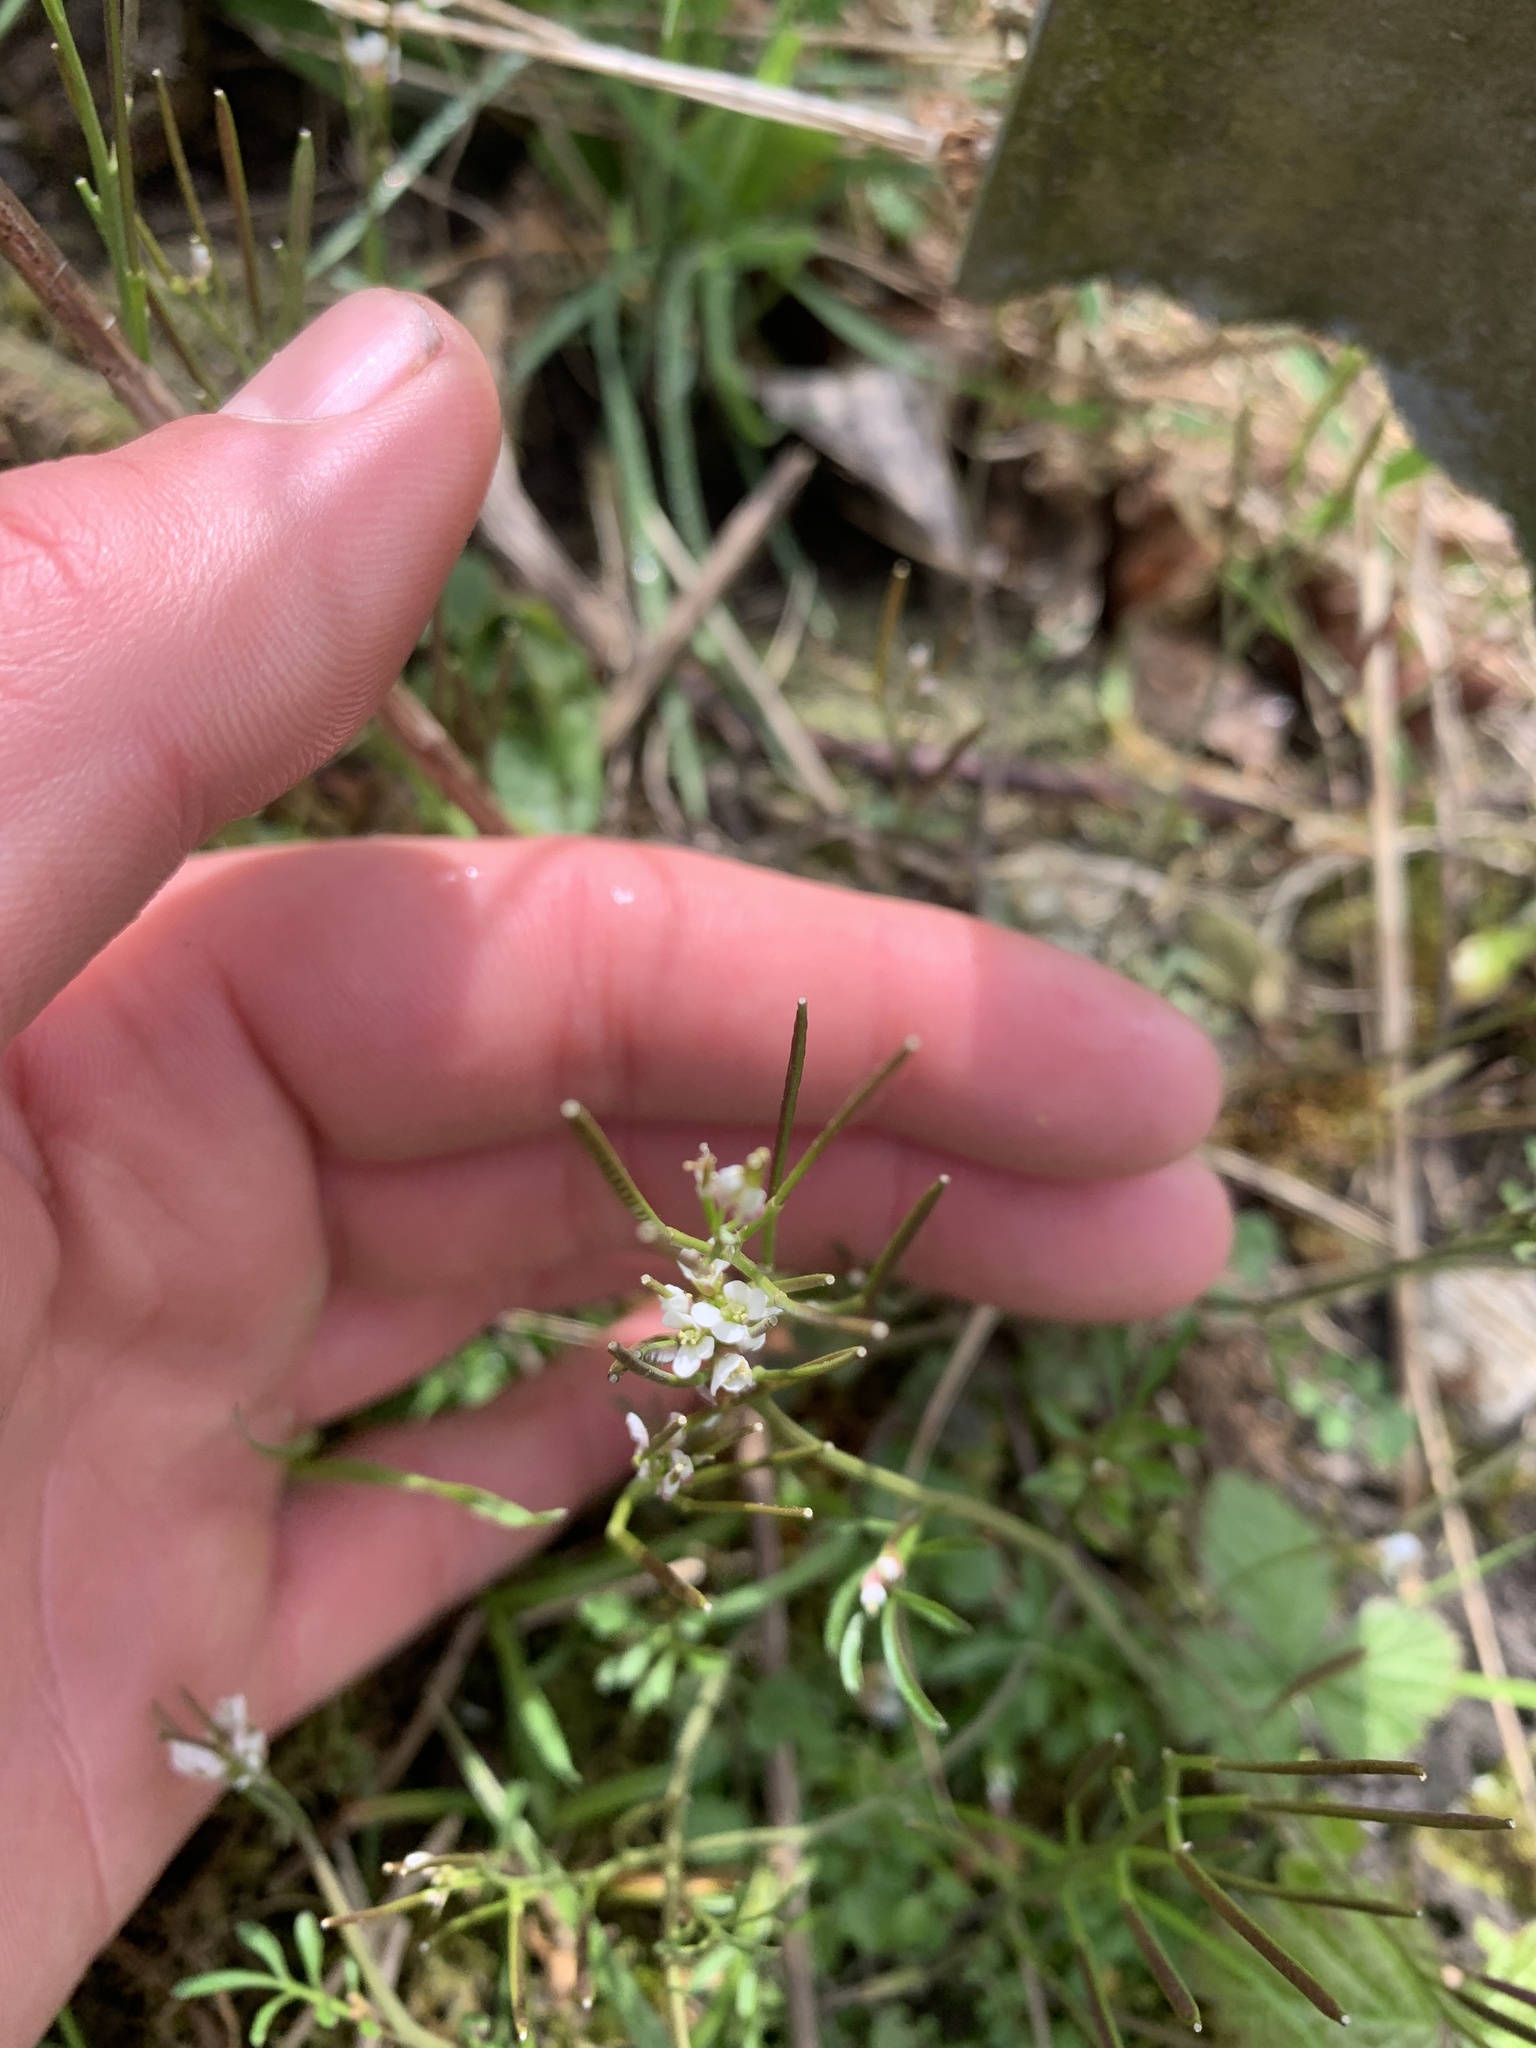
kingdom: Plantae
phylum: Tracheophyta
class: Magnoliopsida
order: Brassicales
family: Brassicaceae
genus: Cardamine
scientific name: Cardamine flexuosa
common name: Woodland bittercress
